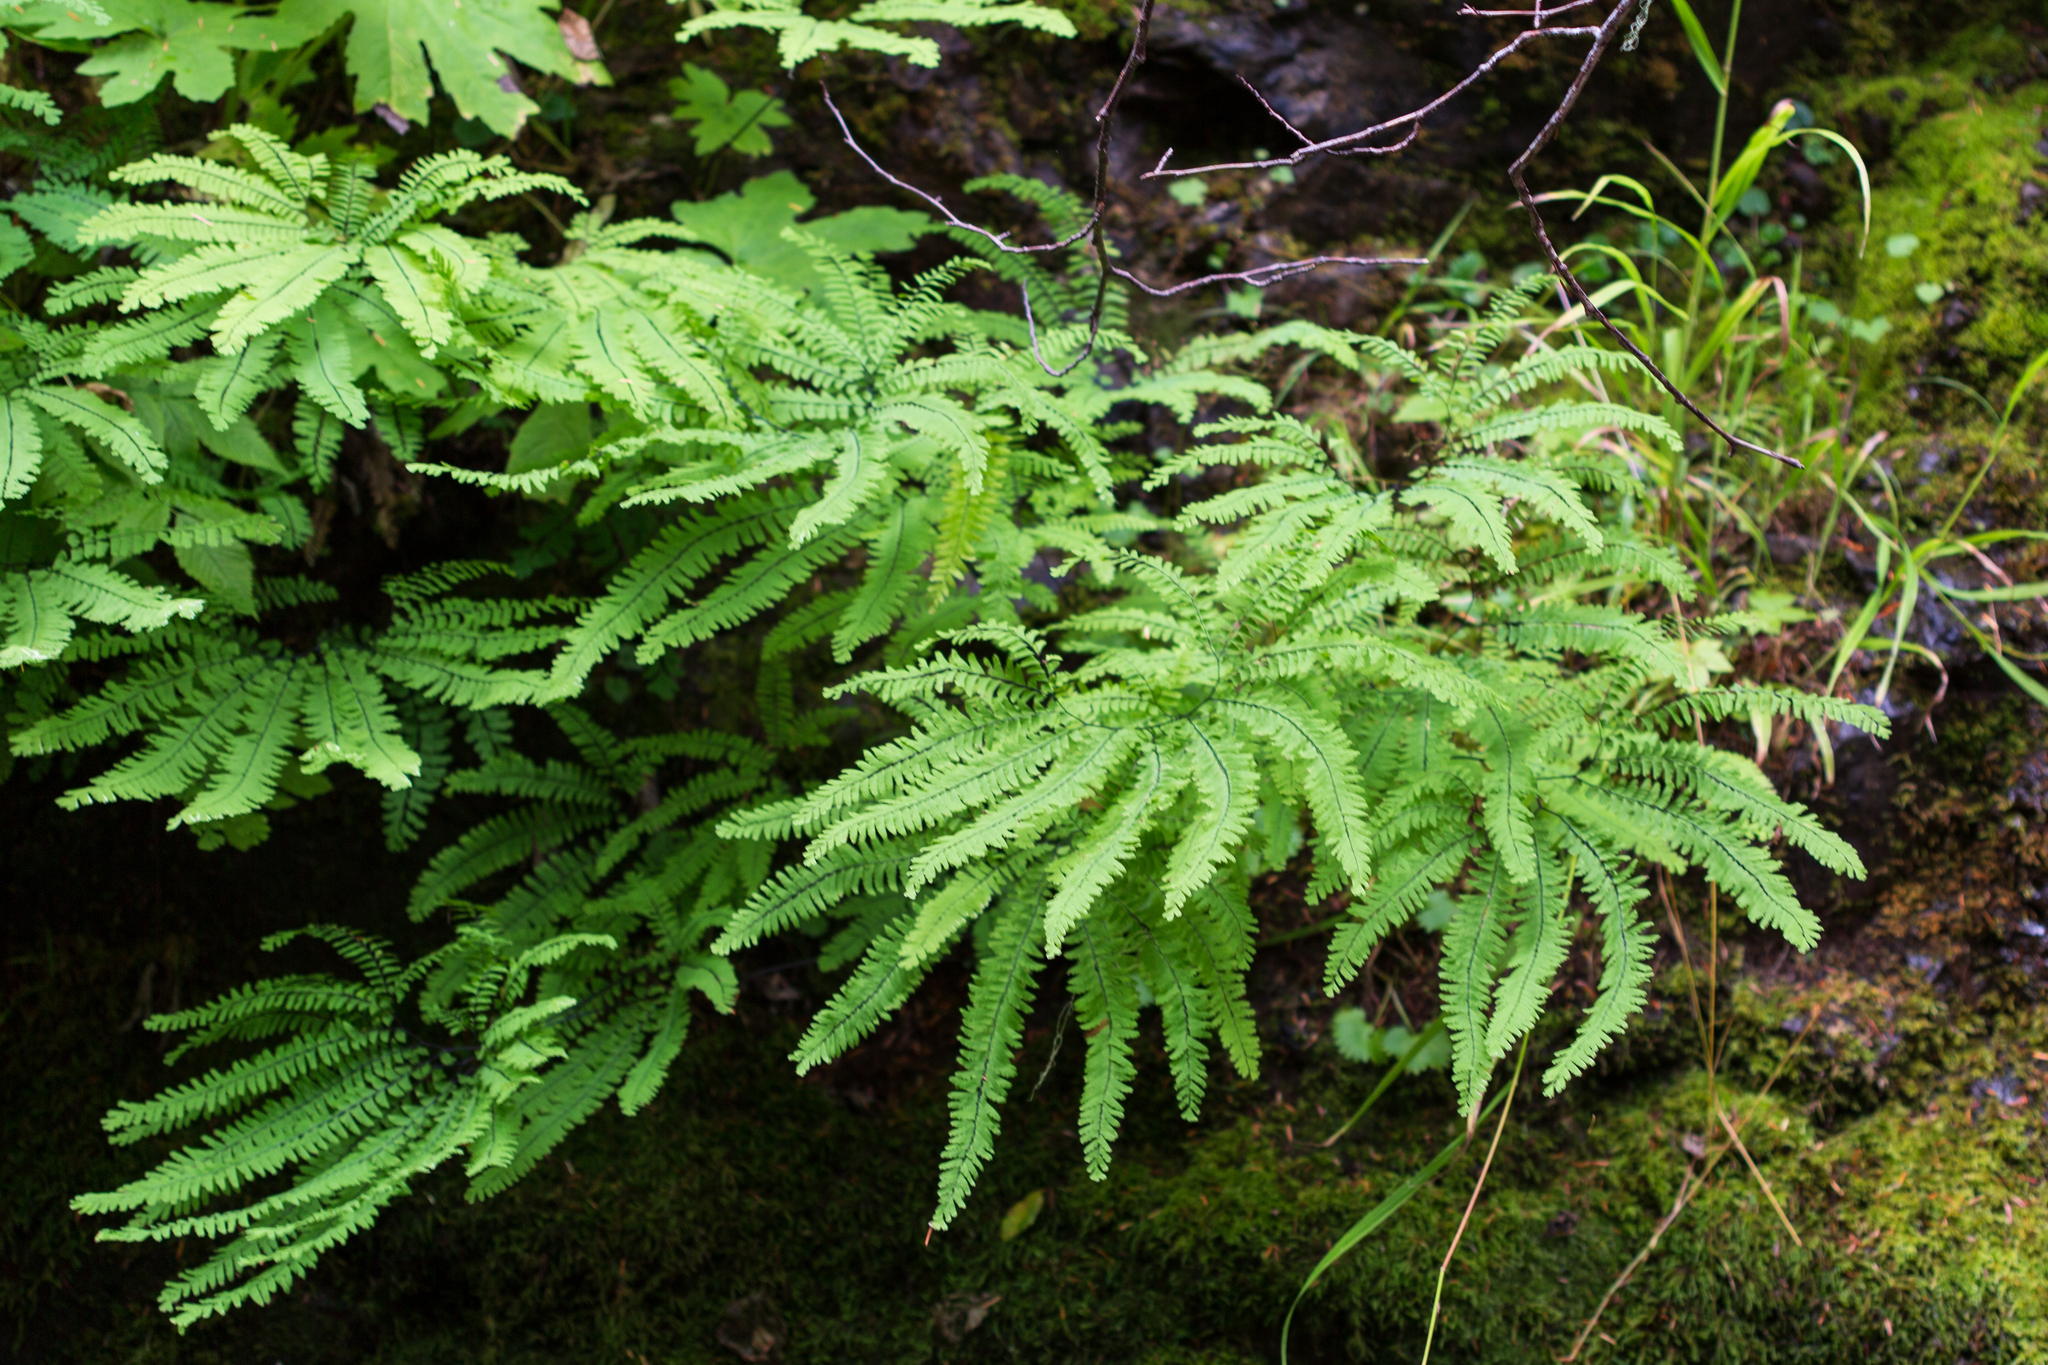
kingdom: Plantae
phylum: Tracheophyta
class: Polypodiopsida
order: Polypodiales
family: Pteridaceae
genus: Adiantum
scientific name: Adiantum aleuticum
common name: Aleutian maidenhair fern
